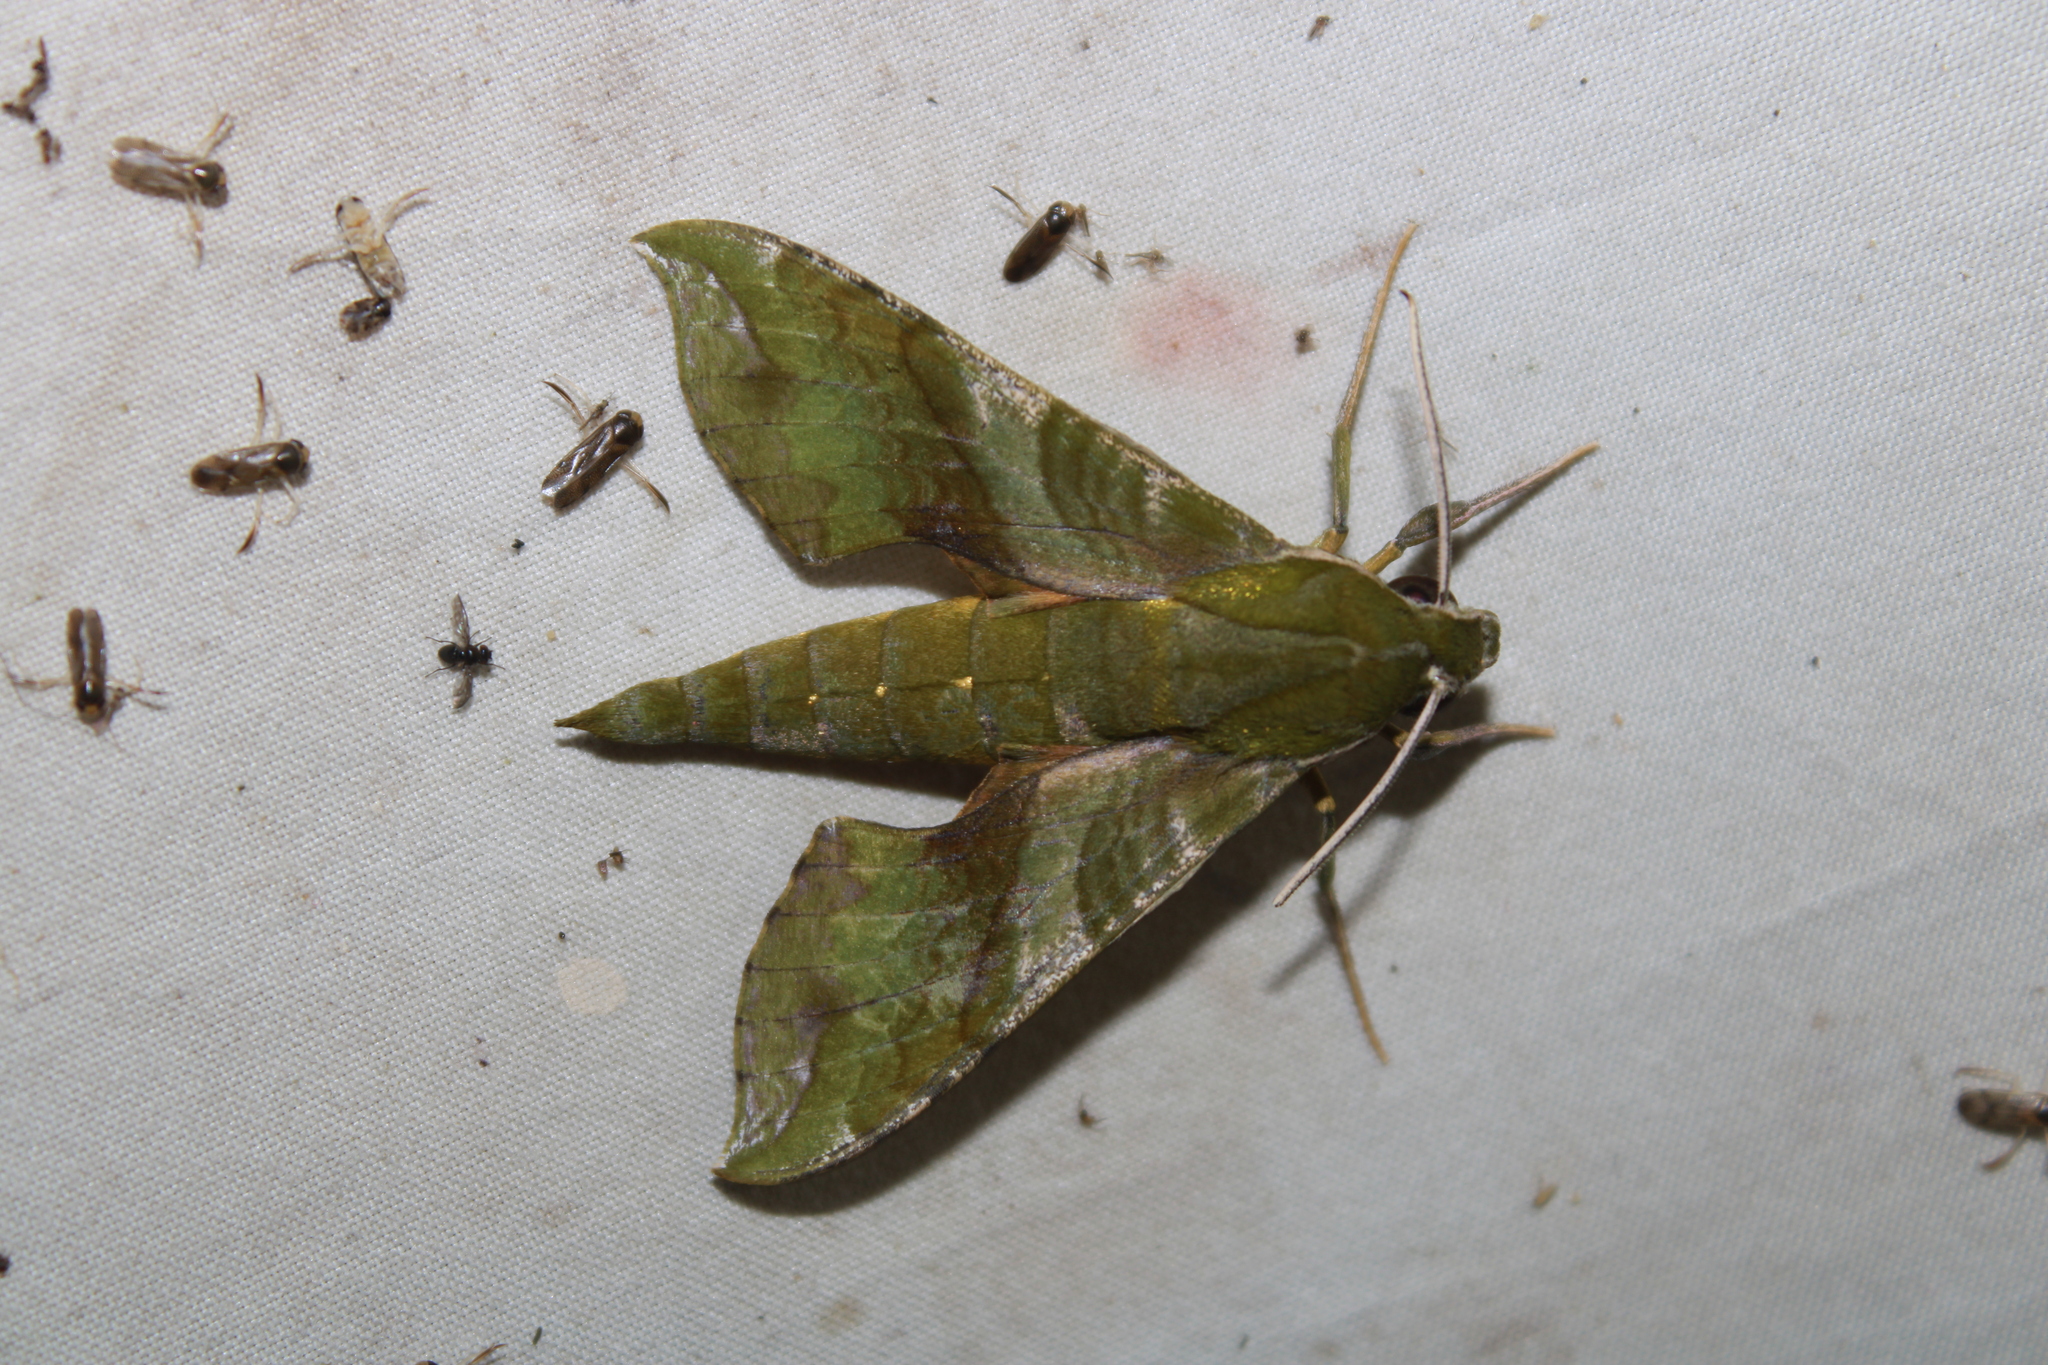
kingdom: Animalia
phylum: Arthropoda
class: Insecta
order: Lepidoptera
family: Sphingidae
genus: Xylophanes
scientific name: Xylophanes pluto
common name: Pluto sphinx
